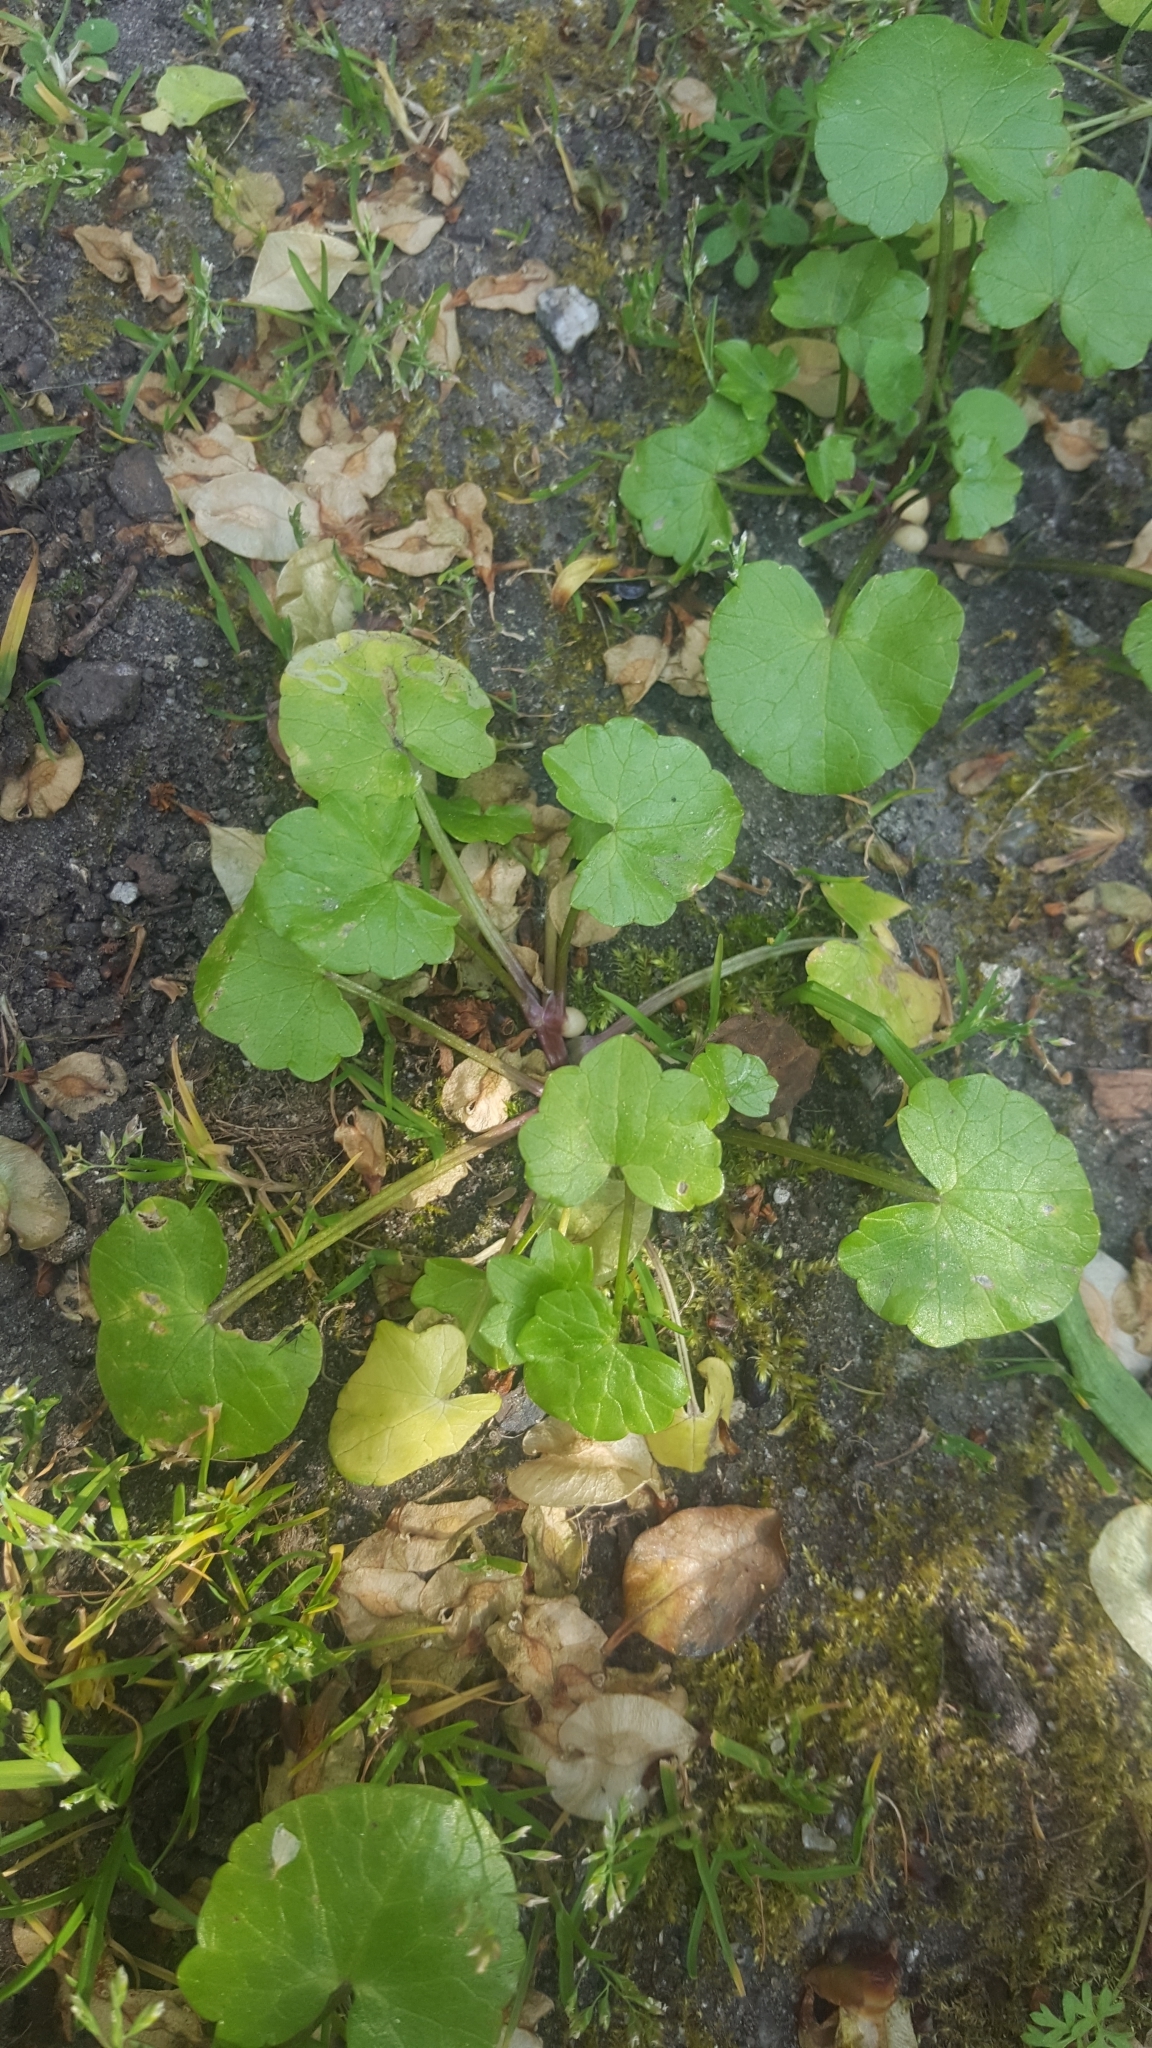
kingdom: Plantae
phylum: Tracheophyta
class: Magnoliopsida
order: Ranunculales
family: Ranunculaceae
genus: Ficaria
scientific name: Ficaria verna
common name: Lesser celandine
